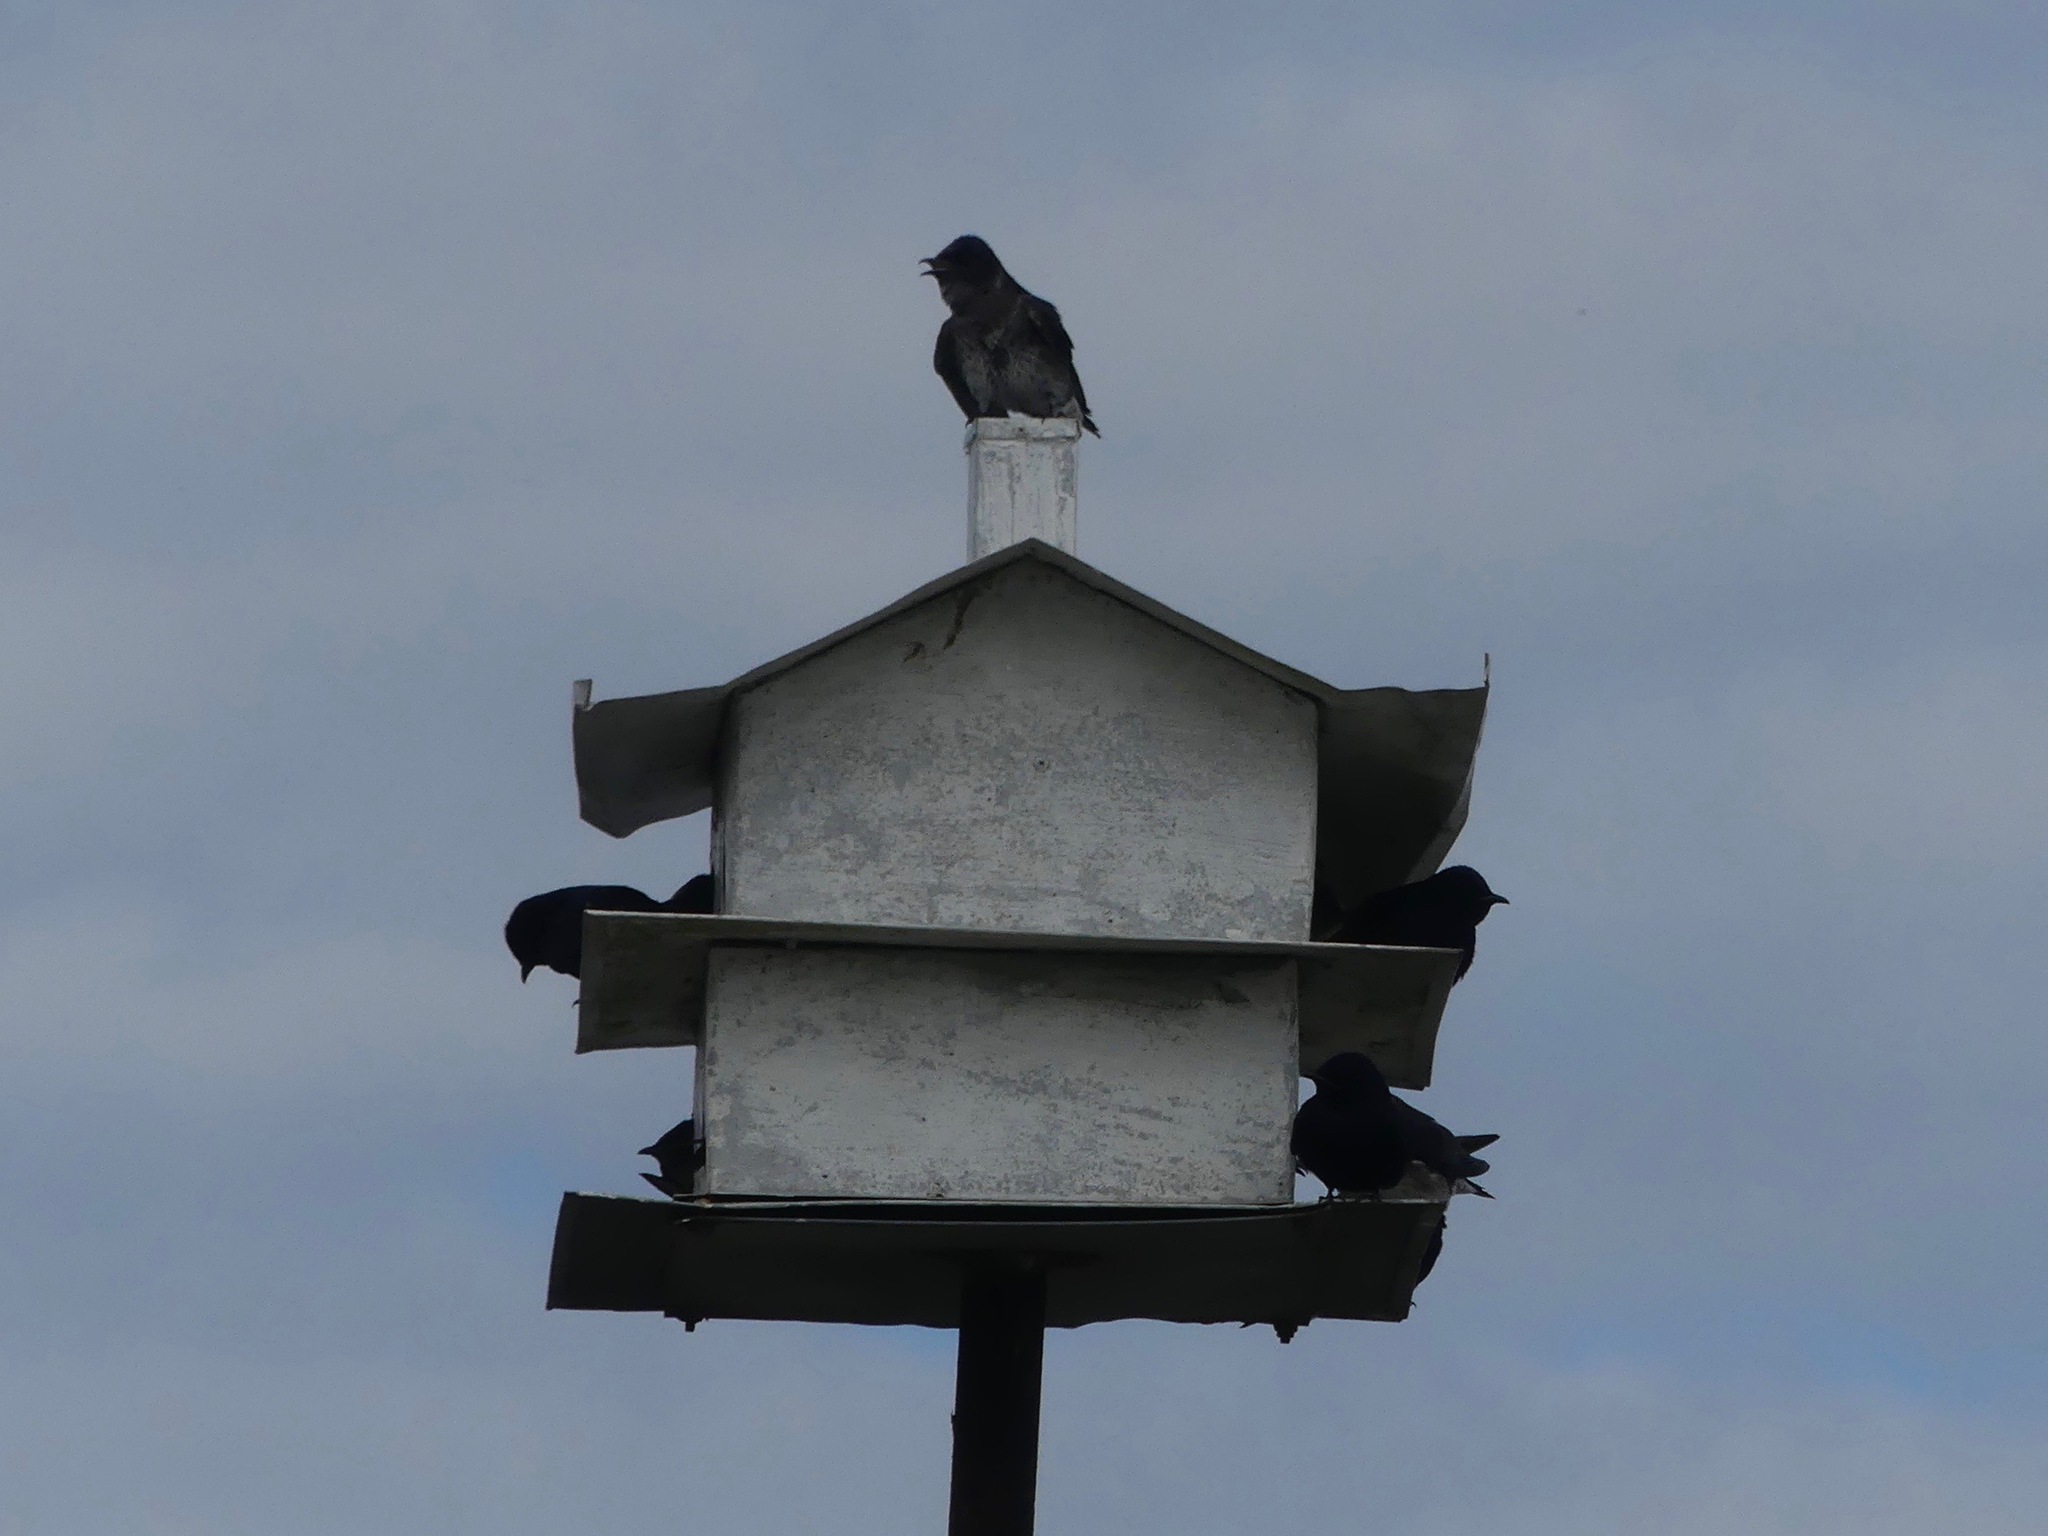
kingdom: Animalia
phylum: Chordata
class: Aves
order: Passeriformes
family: Hirundinidae
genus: Progne
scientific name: Progne subis
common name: Purple martin
